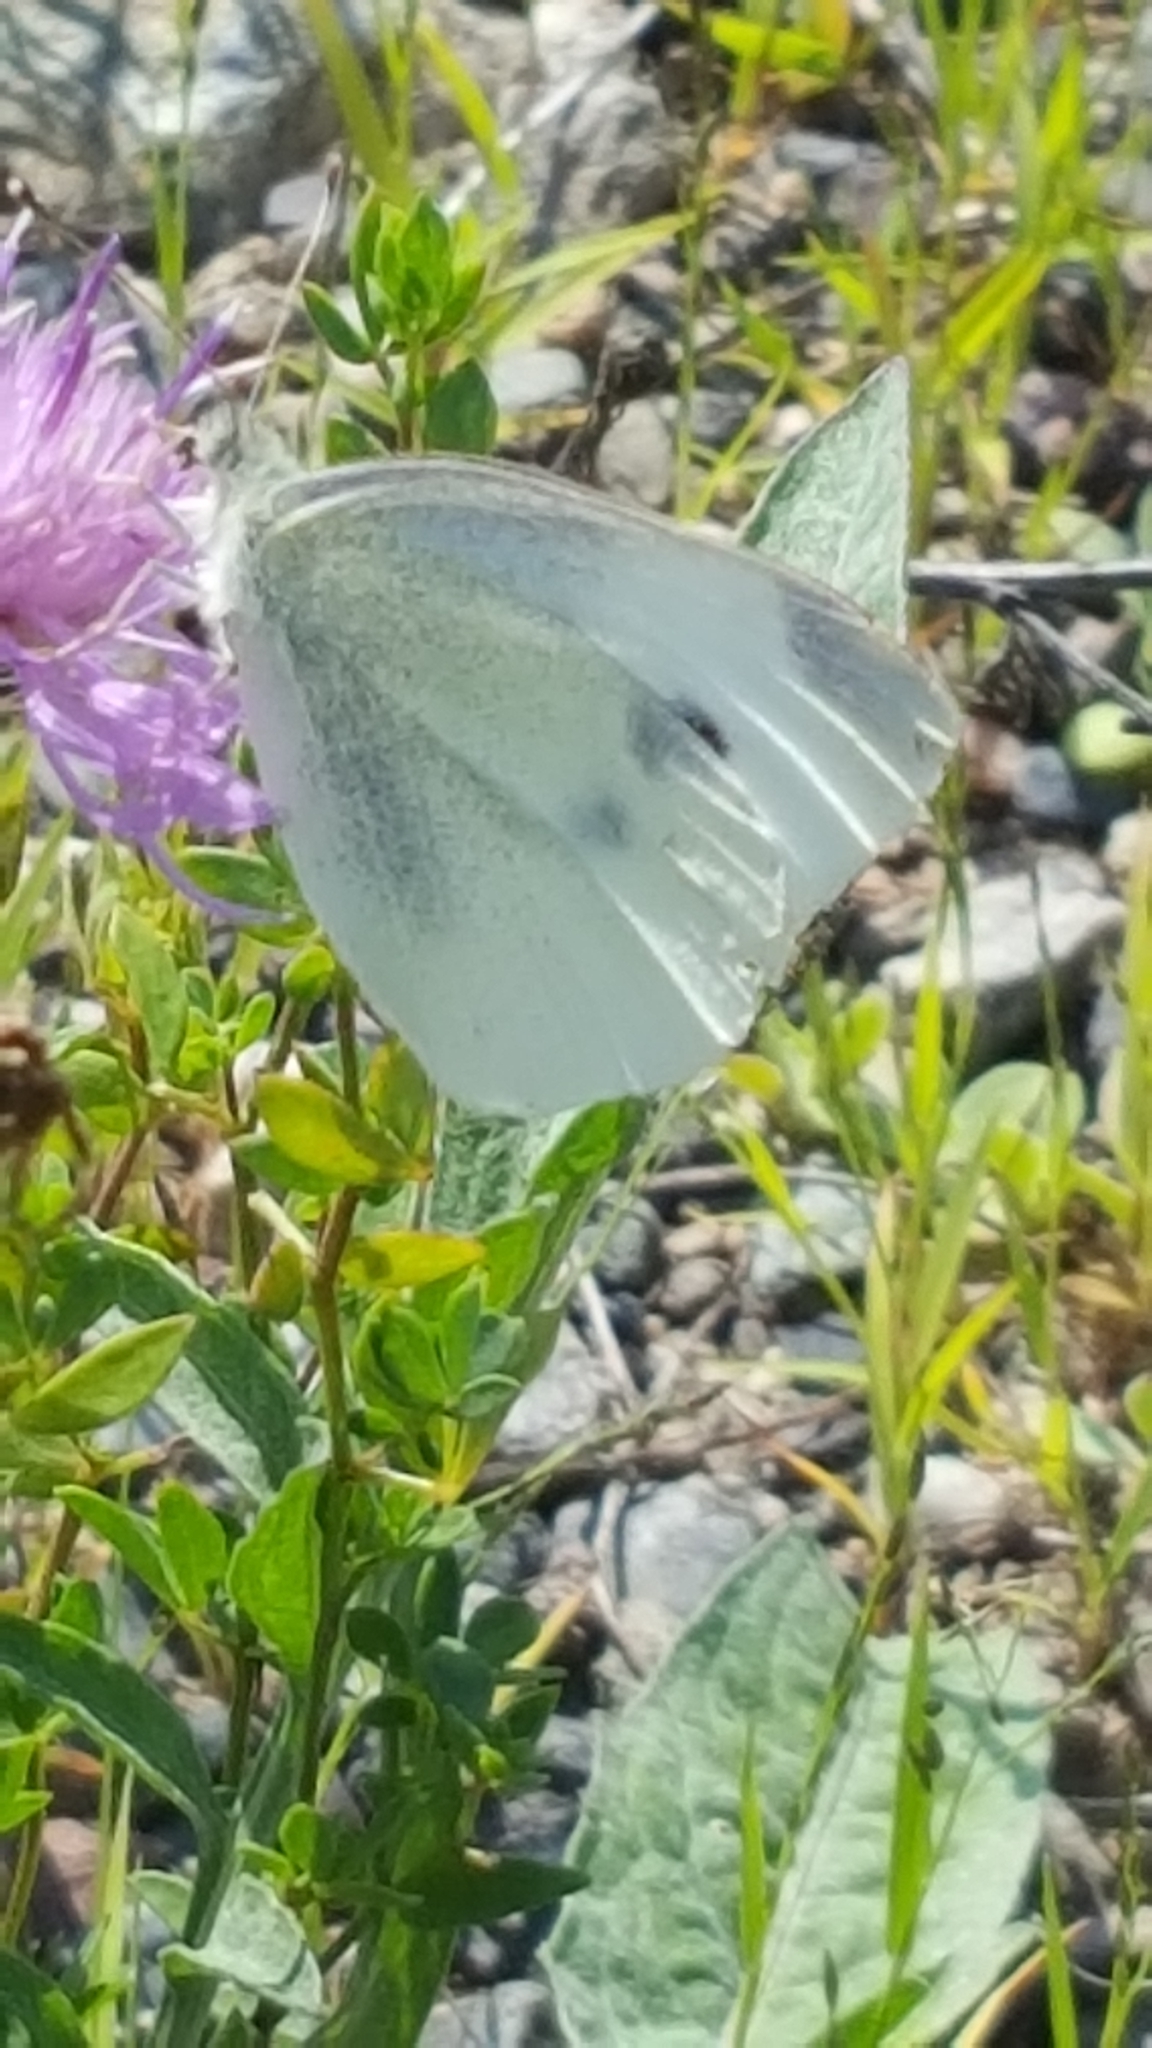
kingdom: Animalia
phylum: Arthropoda
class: Insecta
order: Lepidoptera
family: Pieridae
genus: Pieris
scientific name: Pieris rapae
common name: Small white
